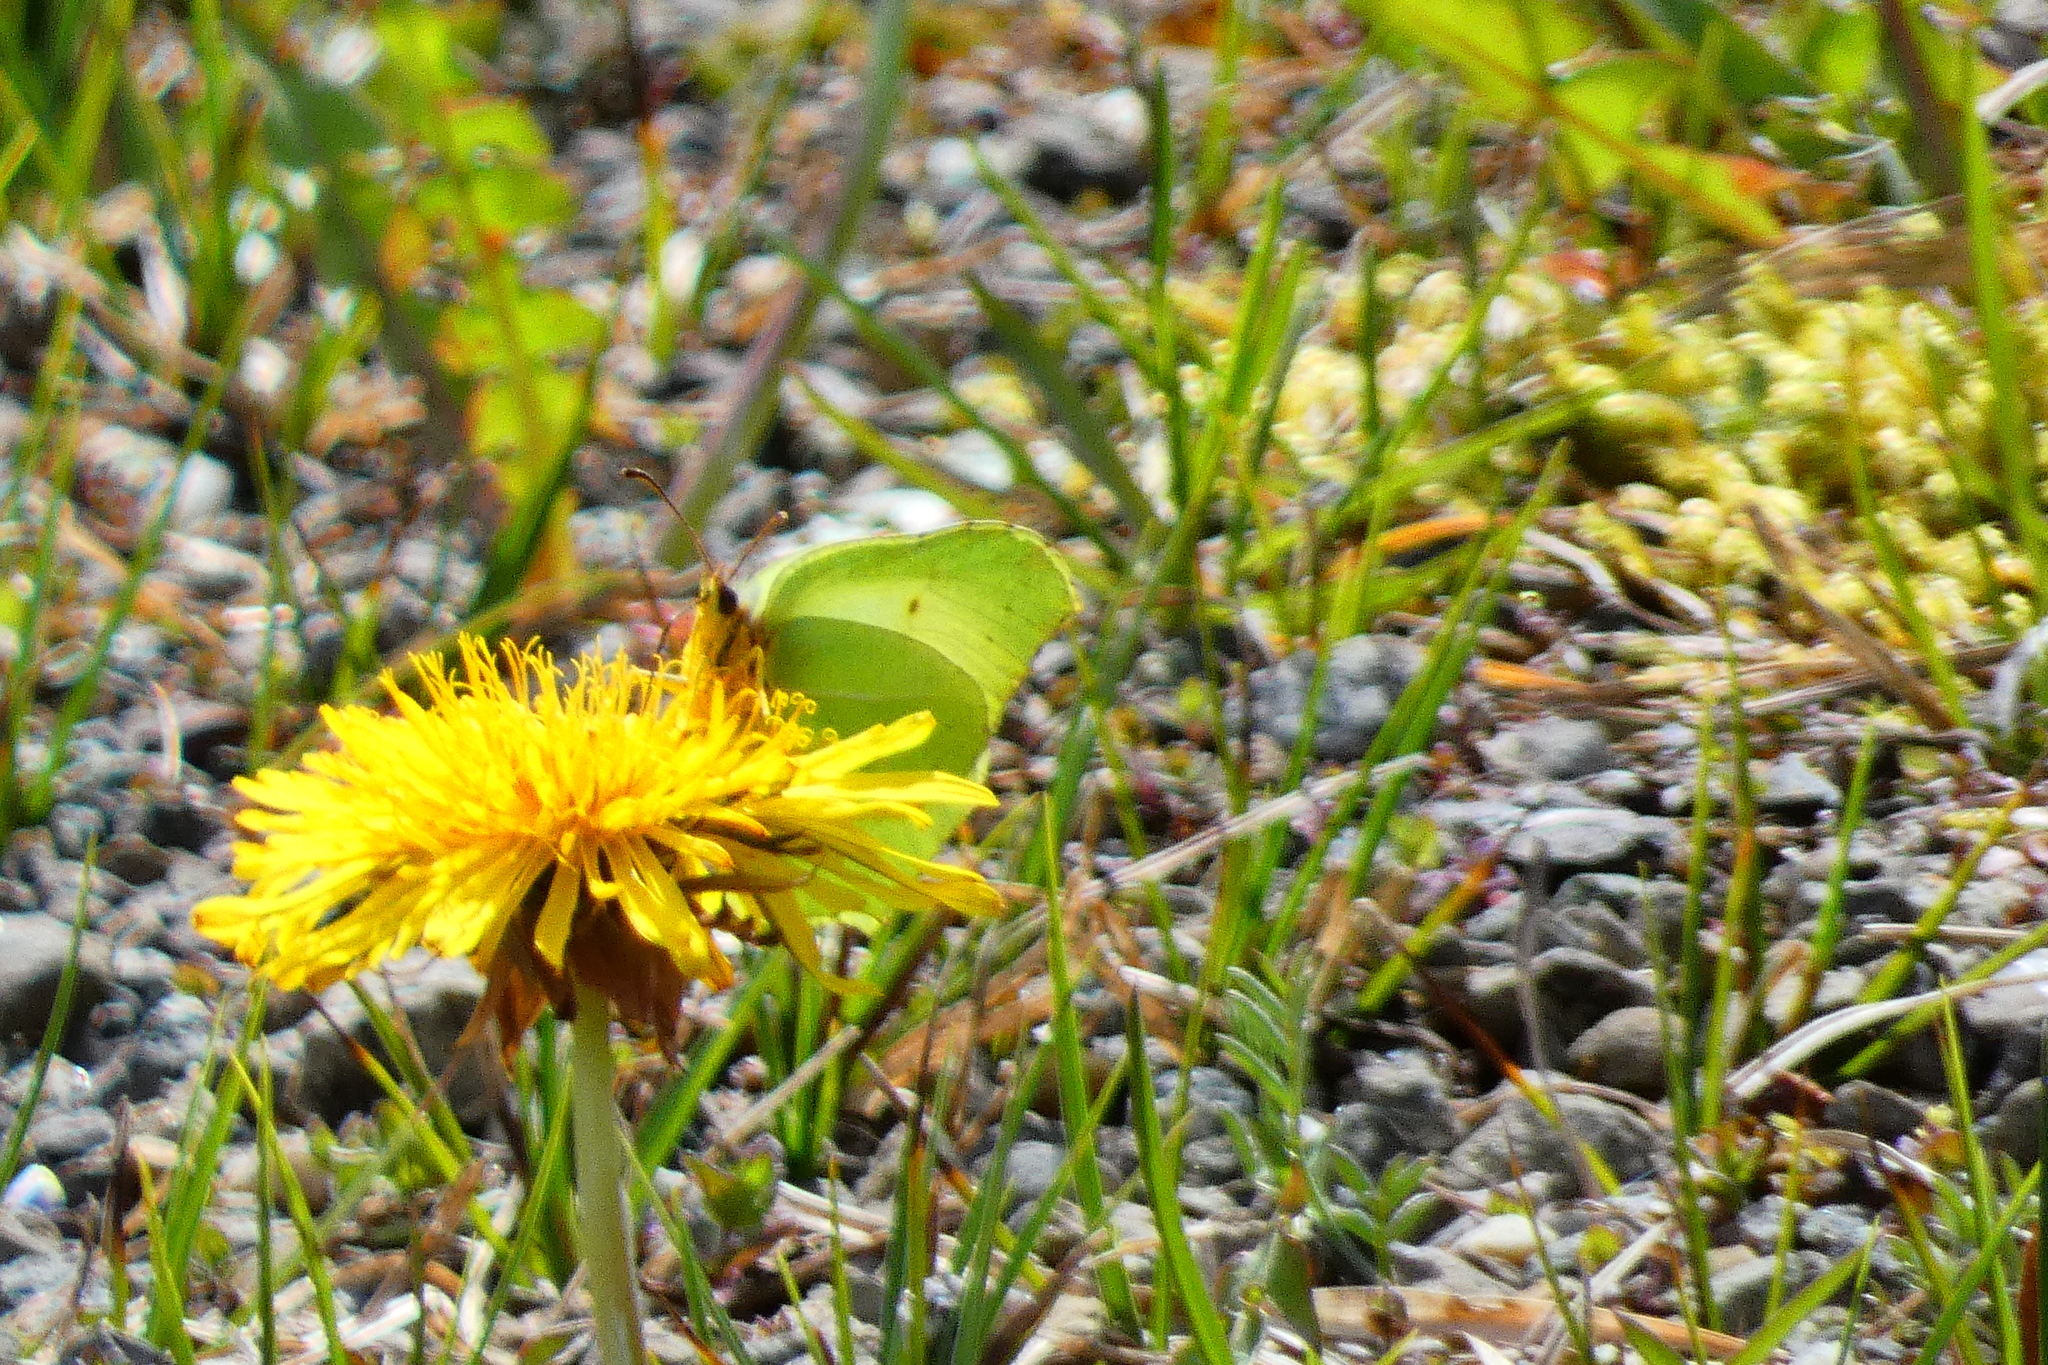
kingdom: Animalia
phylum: Arthropoda
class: Insecta
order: Lepidoptera
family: Pieridae
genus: Gonepteryx
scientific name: Gonepteryx rhamni
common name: Brimstone
